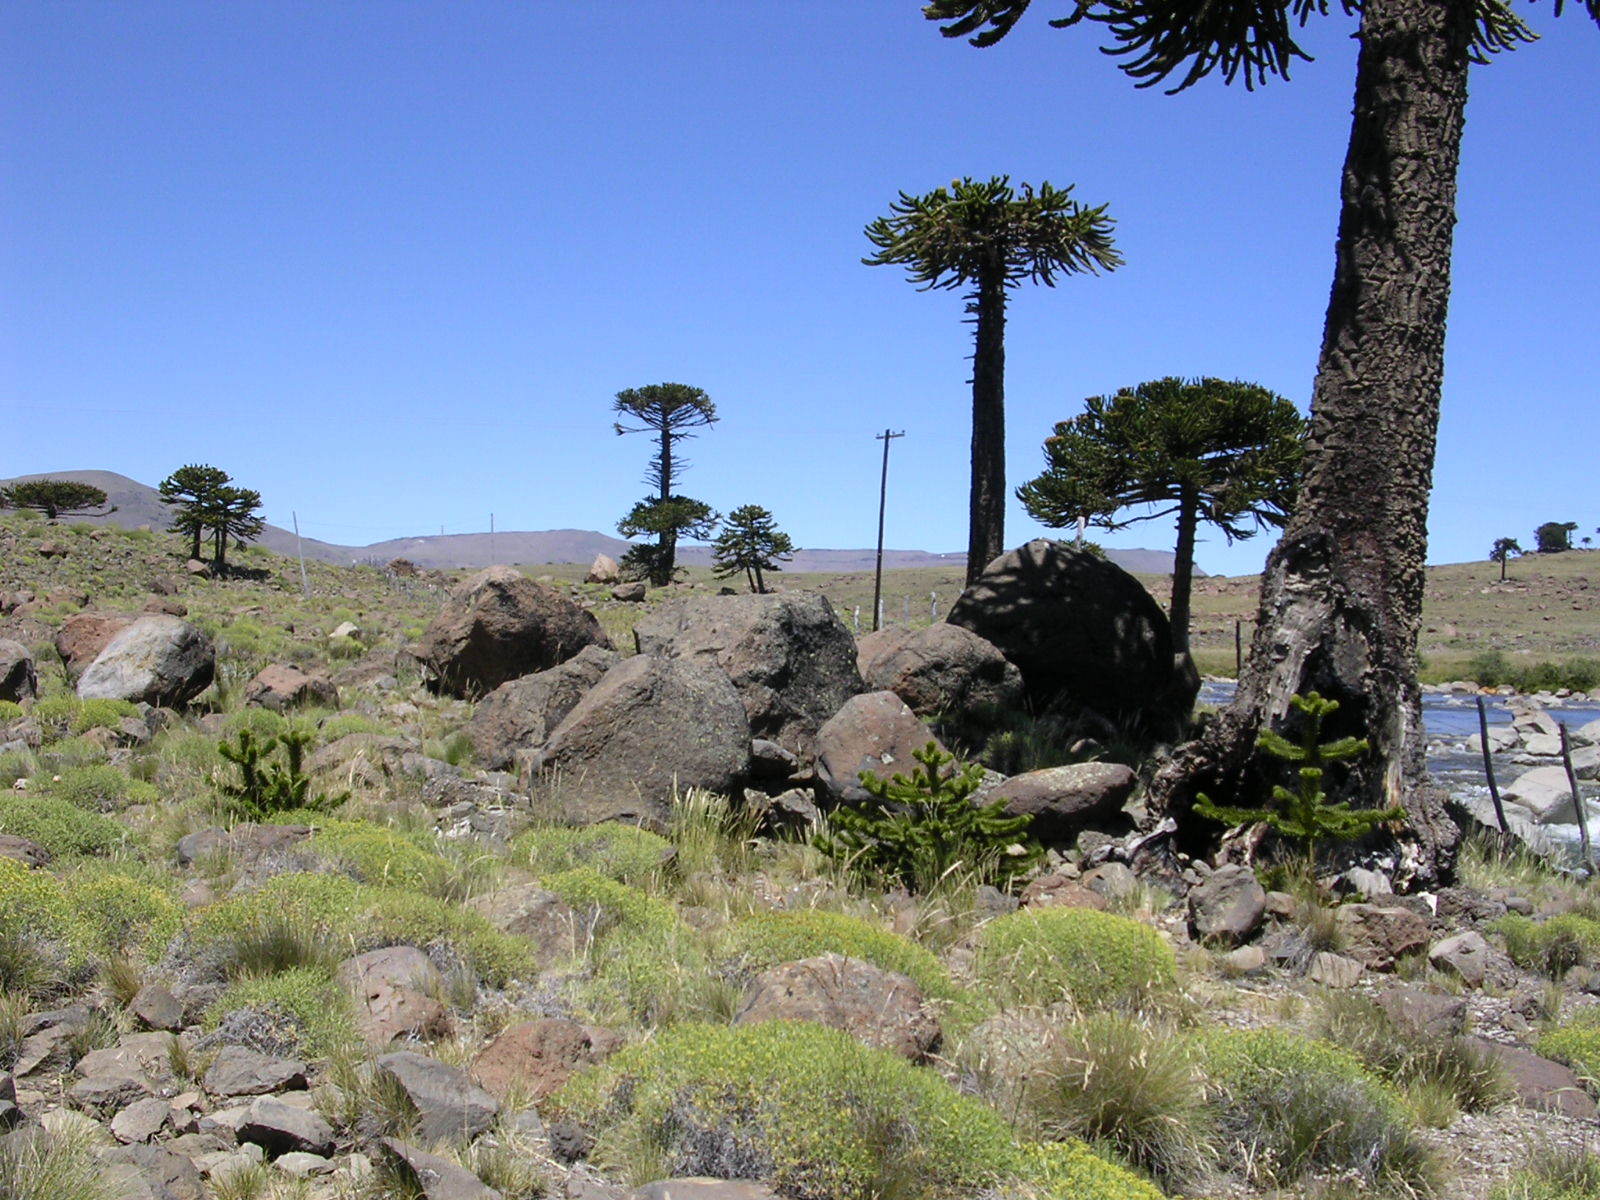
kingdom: Plantae
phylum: Tracheophyta
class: Pinopsida
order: Pinales
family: Araucariaceae
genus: Araucaria
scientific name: Araucaria araucana
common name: Monkey-puzzle
